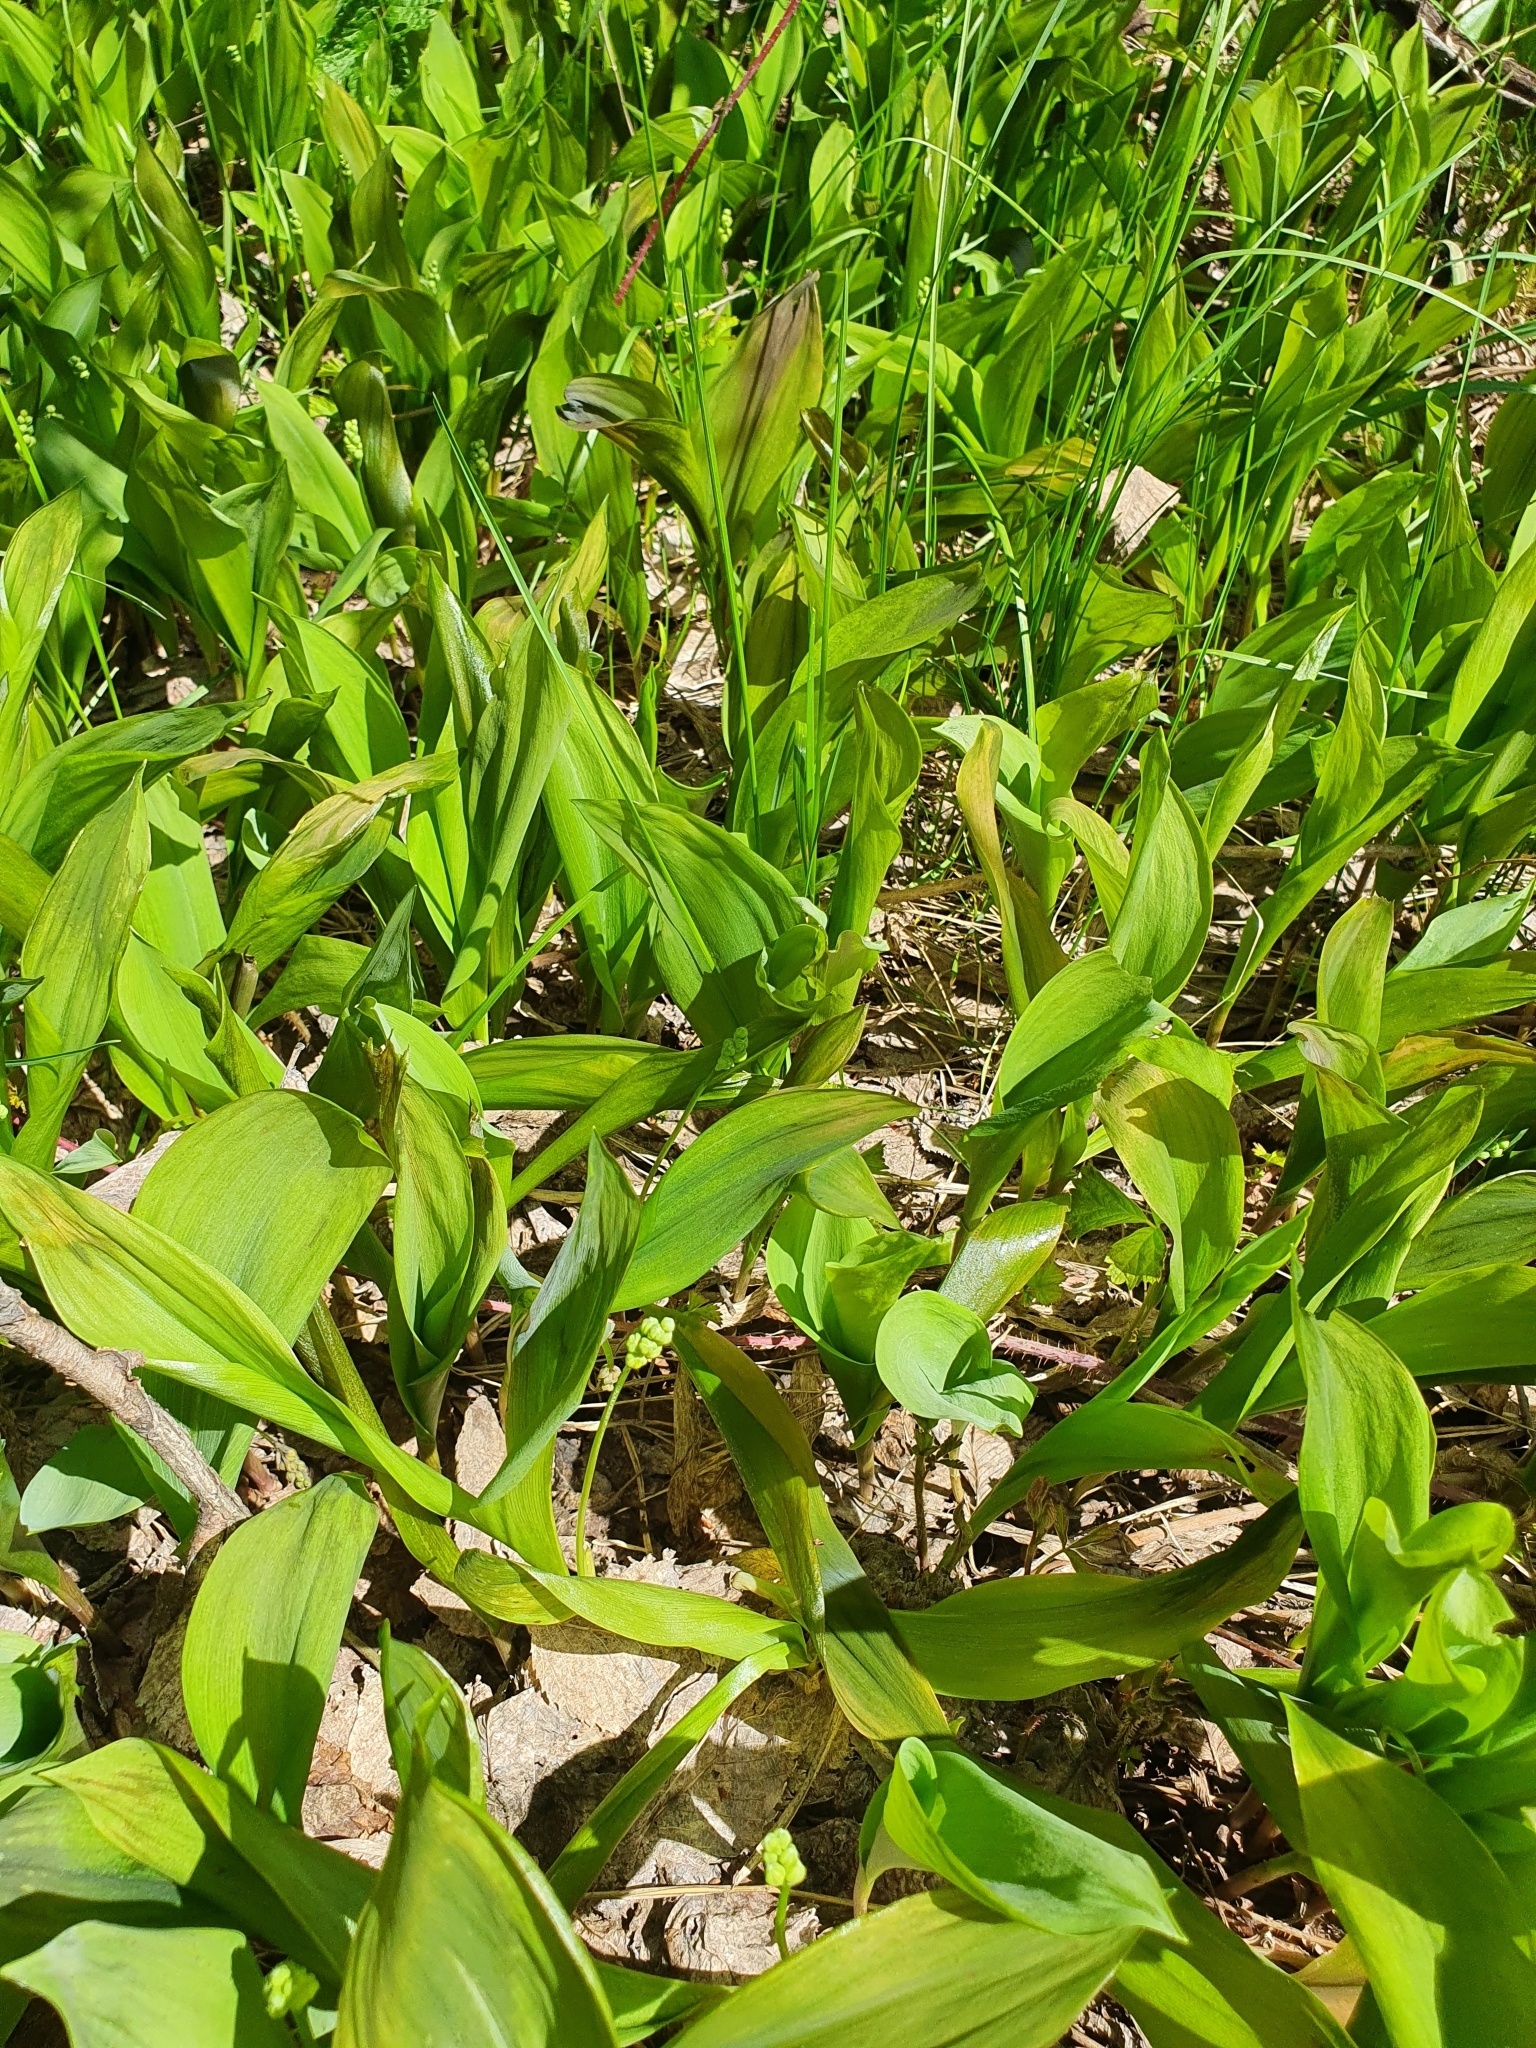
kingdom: Plantae
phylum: Tracheophyta
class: Liliopsida
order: Asparagales
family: Asparagaceae
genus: Convallaria
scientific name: Convallaria majalis
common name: Lily-of-the-valley
